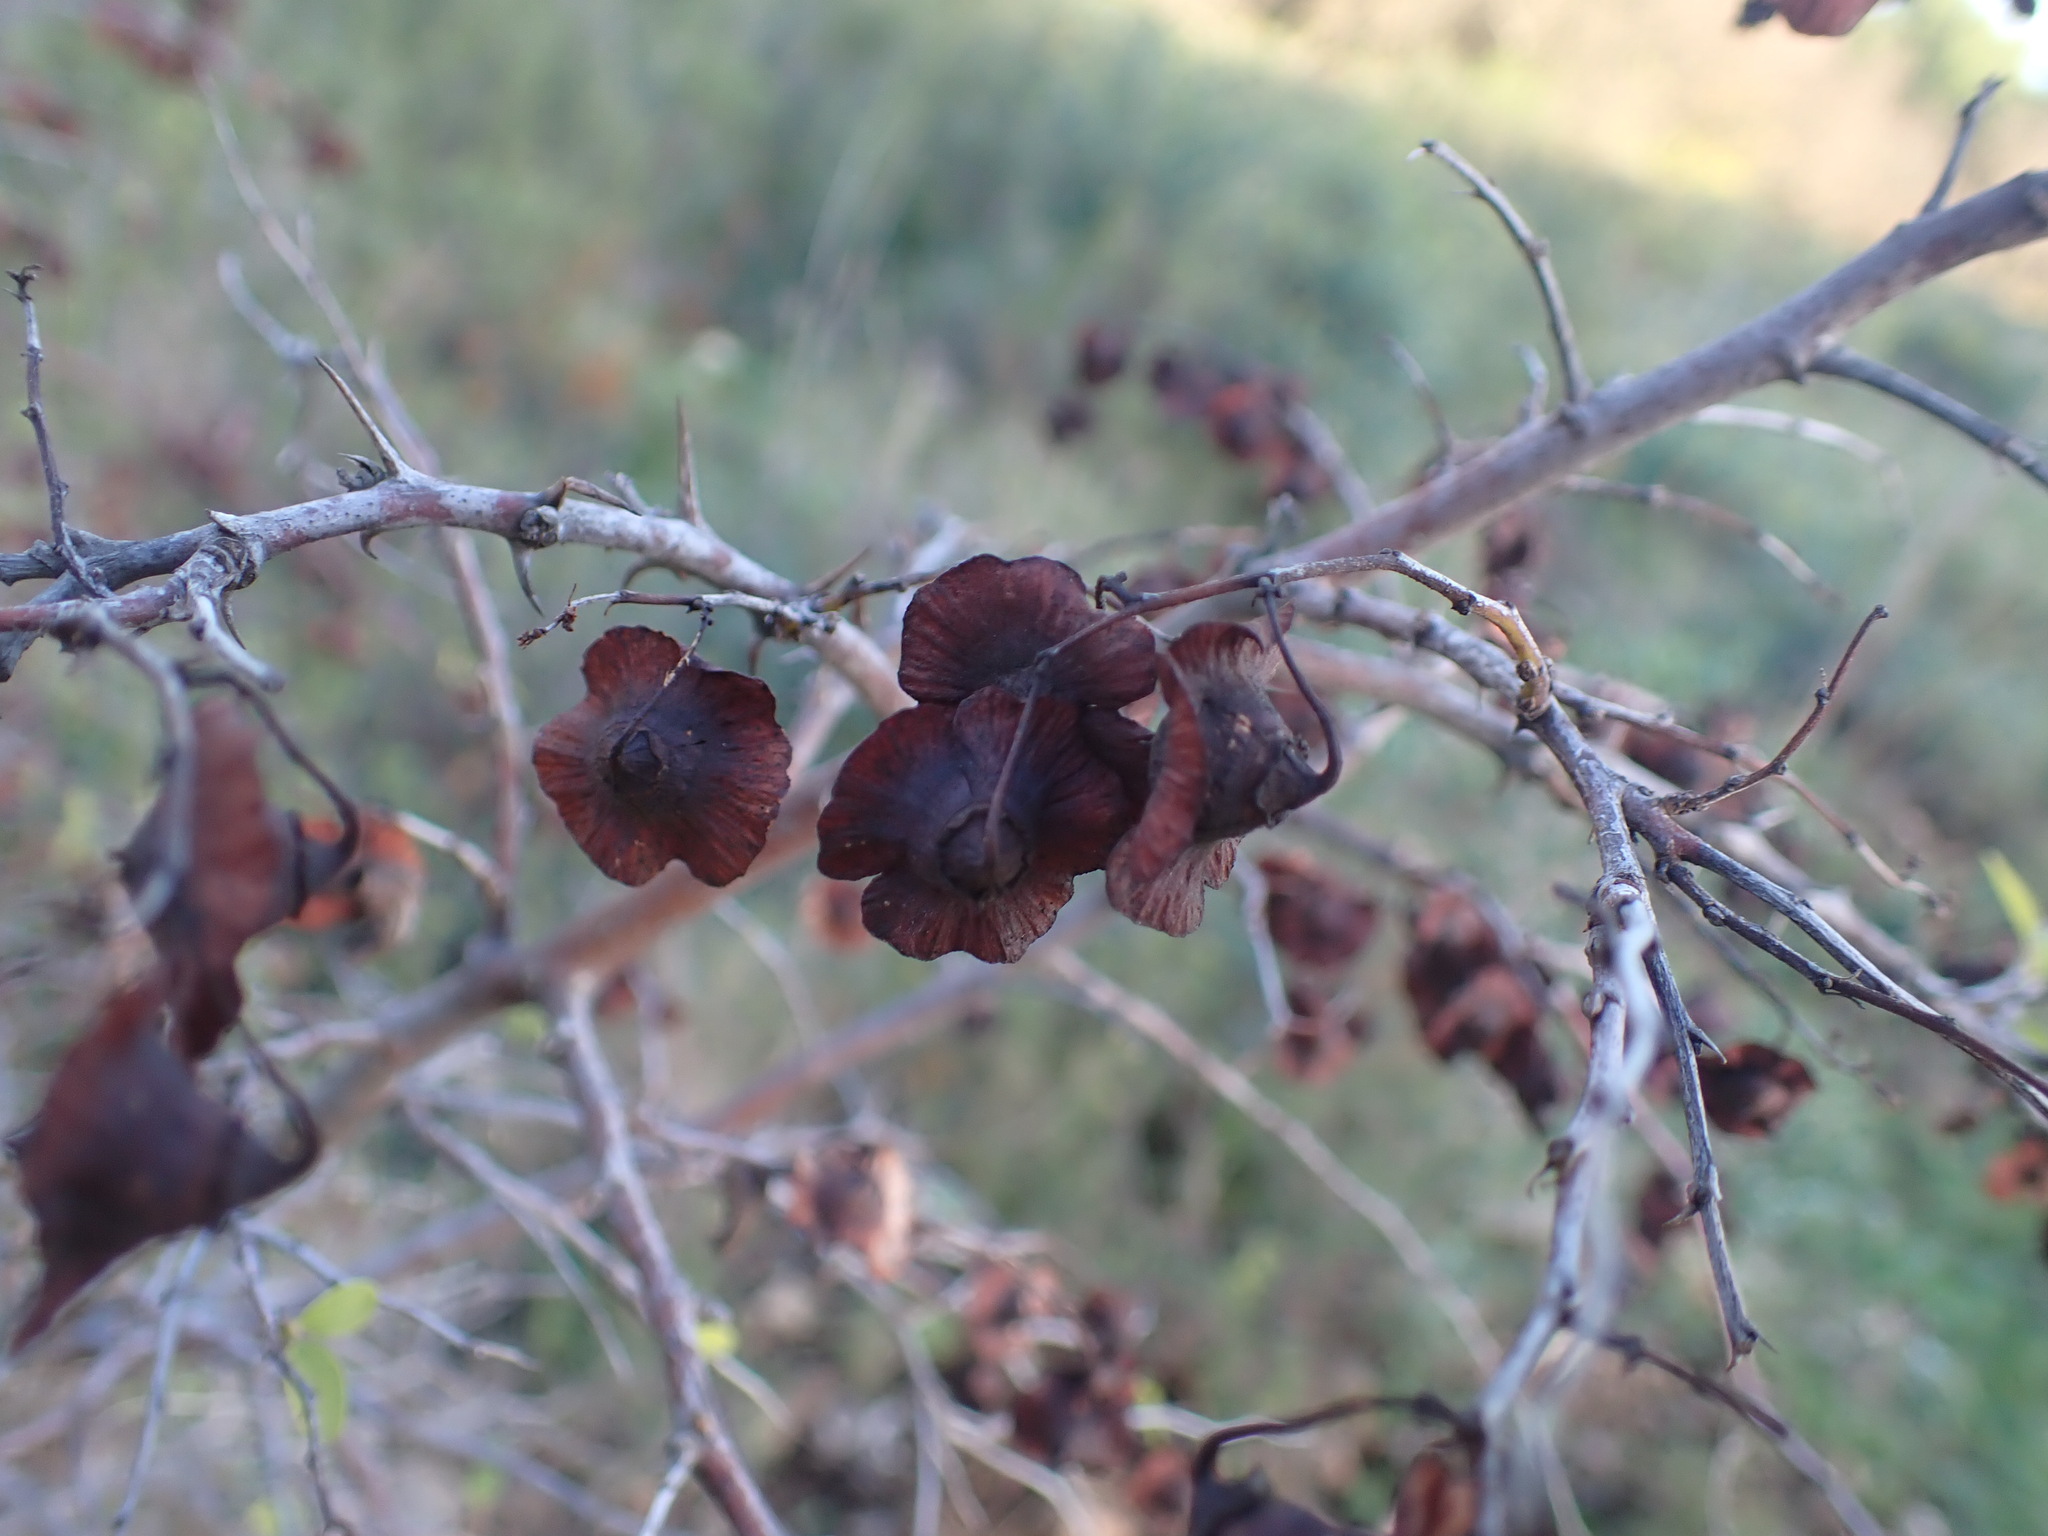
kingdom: Plantae
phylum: Tracheophyta
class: Magnoliopsida
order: Rosales
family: Rhamnaceae
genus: Paliurus
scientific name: Paliurus spina-christi
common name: Jeruselem thorn
